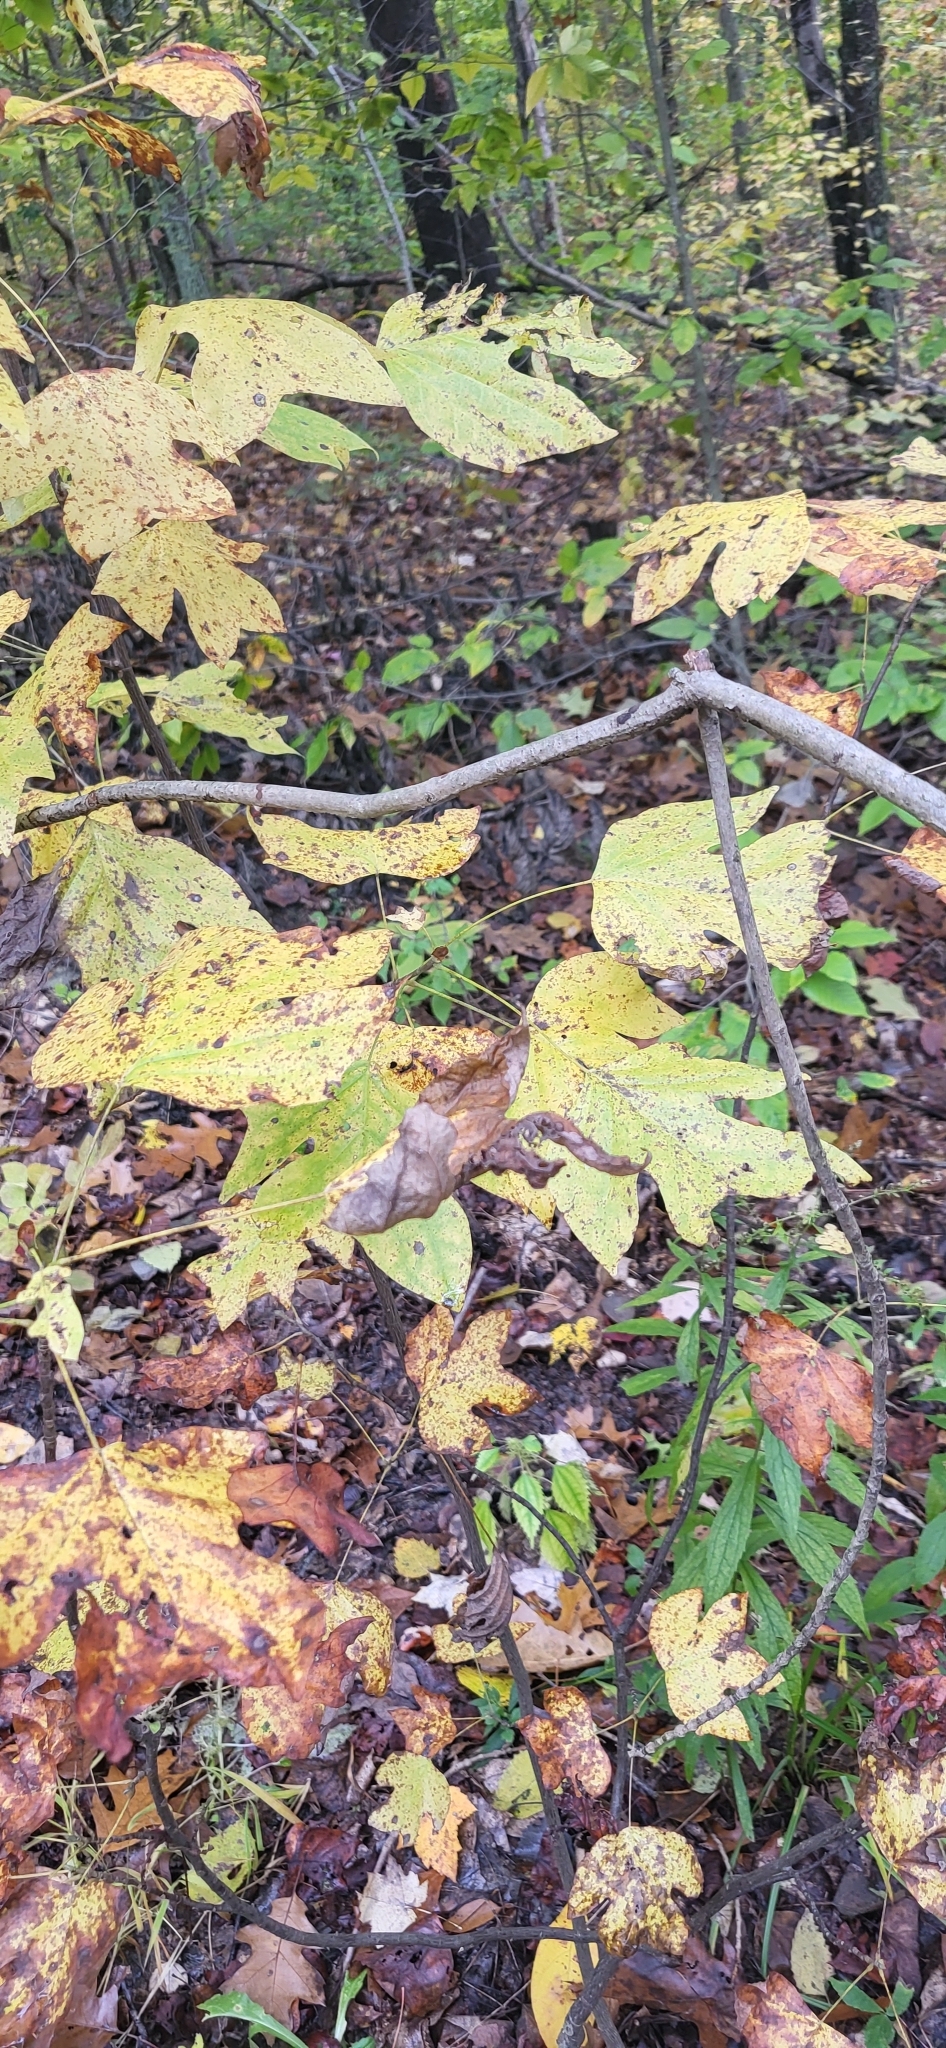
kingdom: Plantae
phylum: Tracheophyta
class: Magnoliopsida
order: Magnoliales
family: Magnoliaceae
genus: Liriodendron
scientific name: Liriodendron tulipifera
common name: Tulip tree
